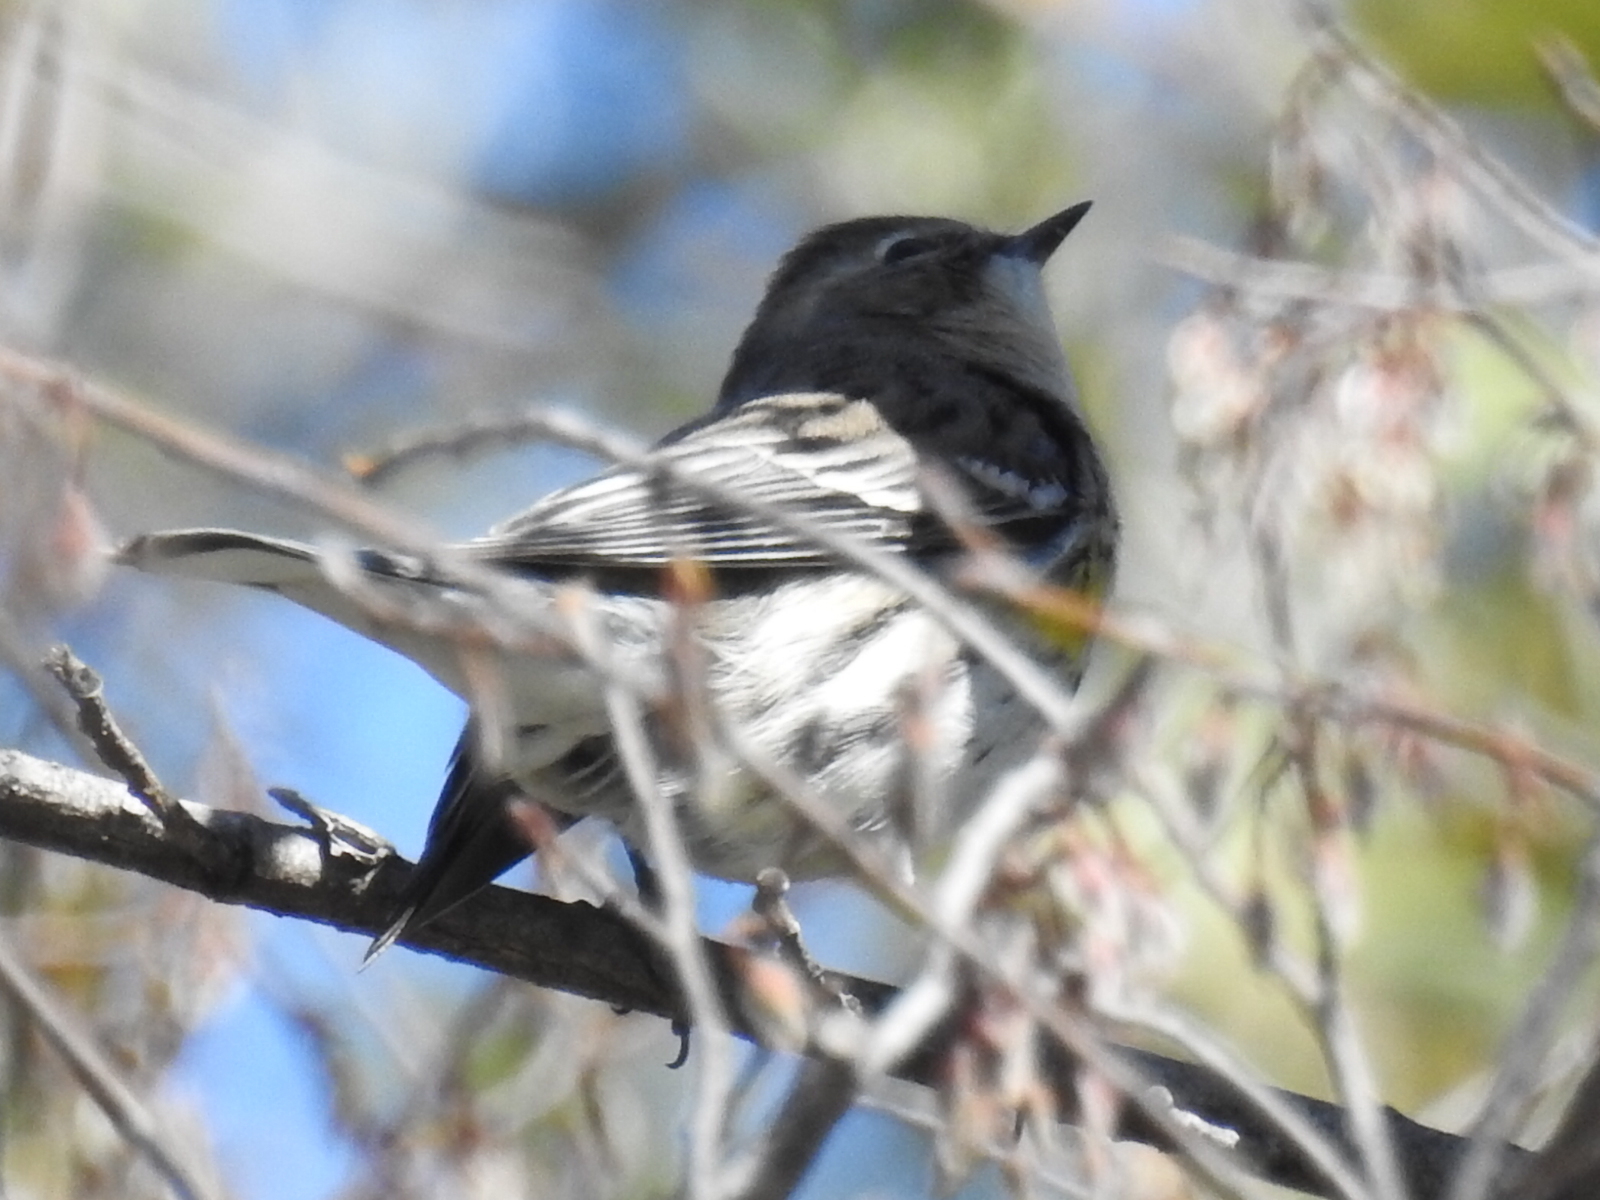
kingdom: Animalia
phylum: Chordata
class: Aves
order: Passeriformes
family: Parulidae
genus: Setophaga
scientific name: Setophaga coronata
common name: Myrtle warbler
